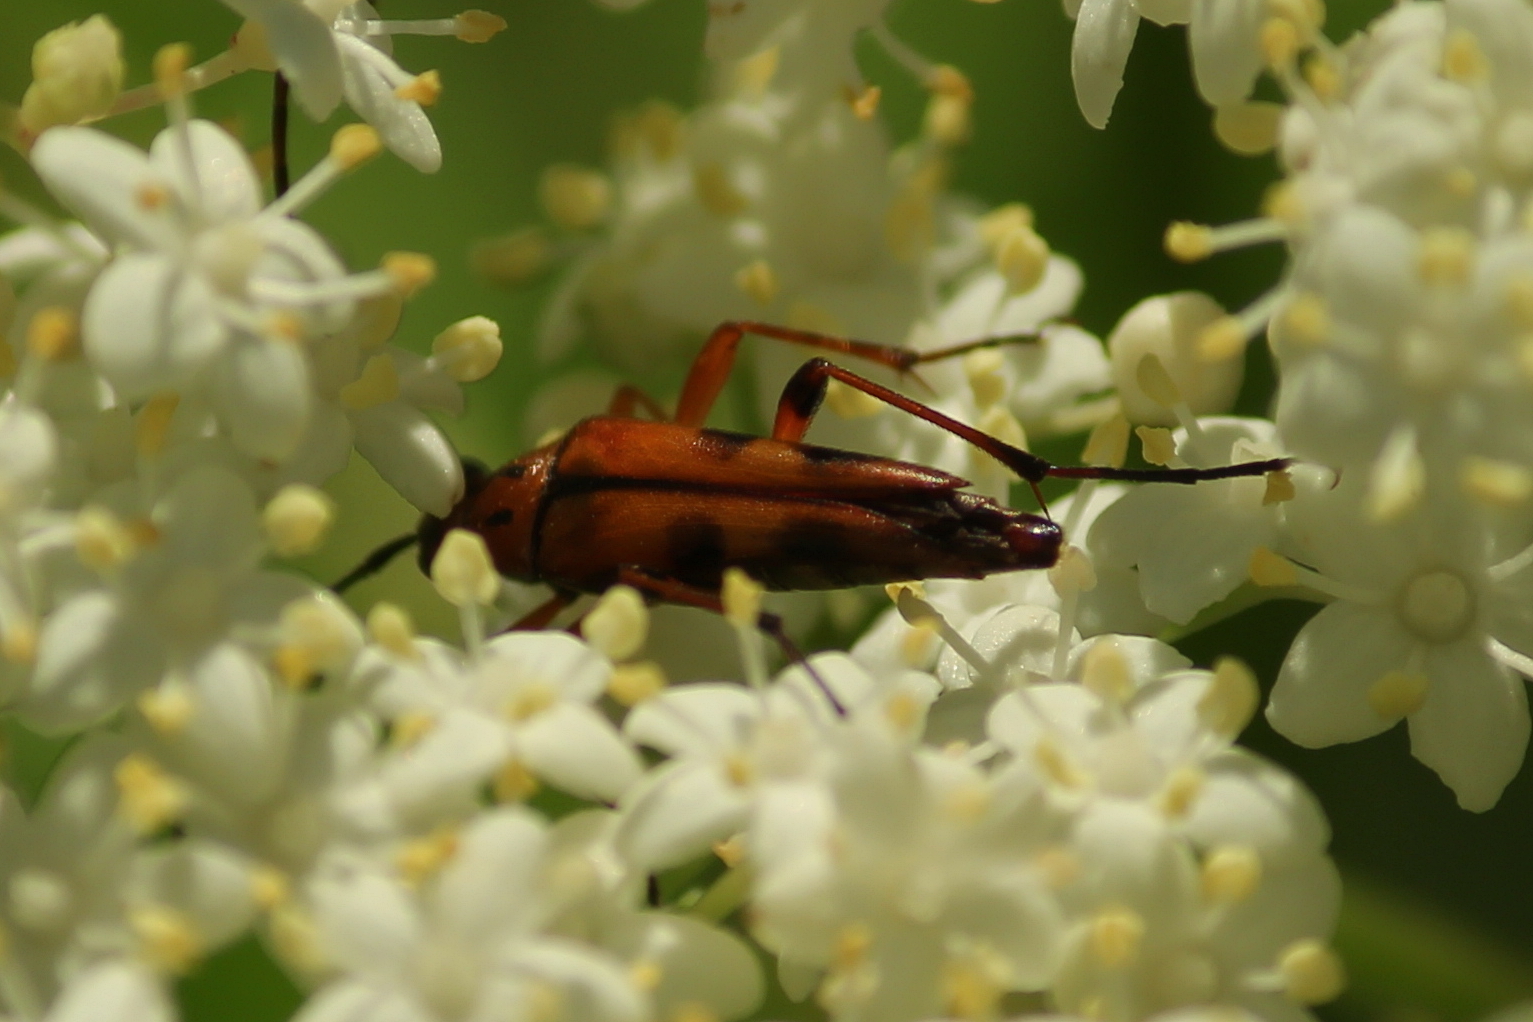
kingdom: Animalia
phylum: Arthropoda
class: Insecta
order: Coleoptera
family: Cerambycidae
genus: Strangalia
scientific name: Strangalia famelica
